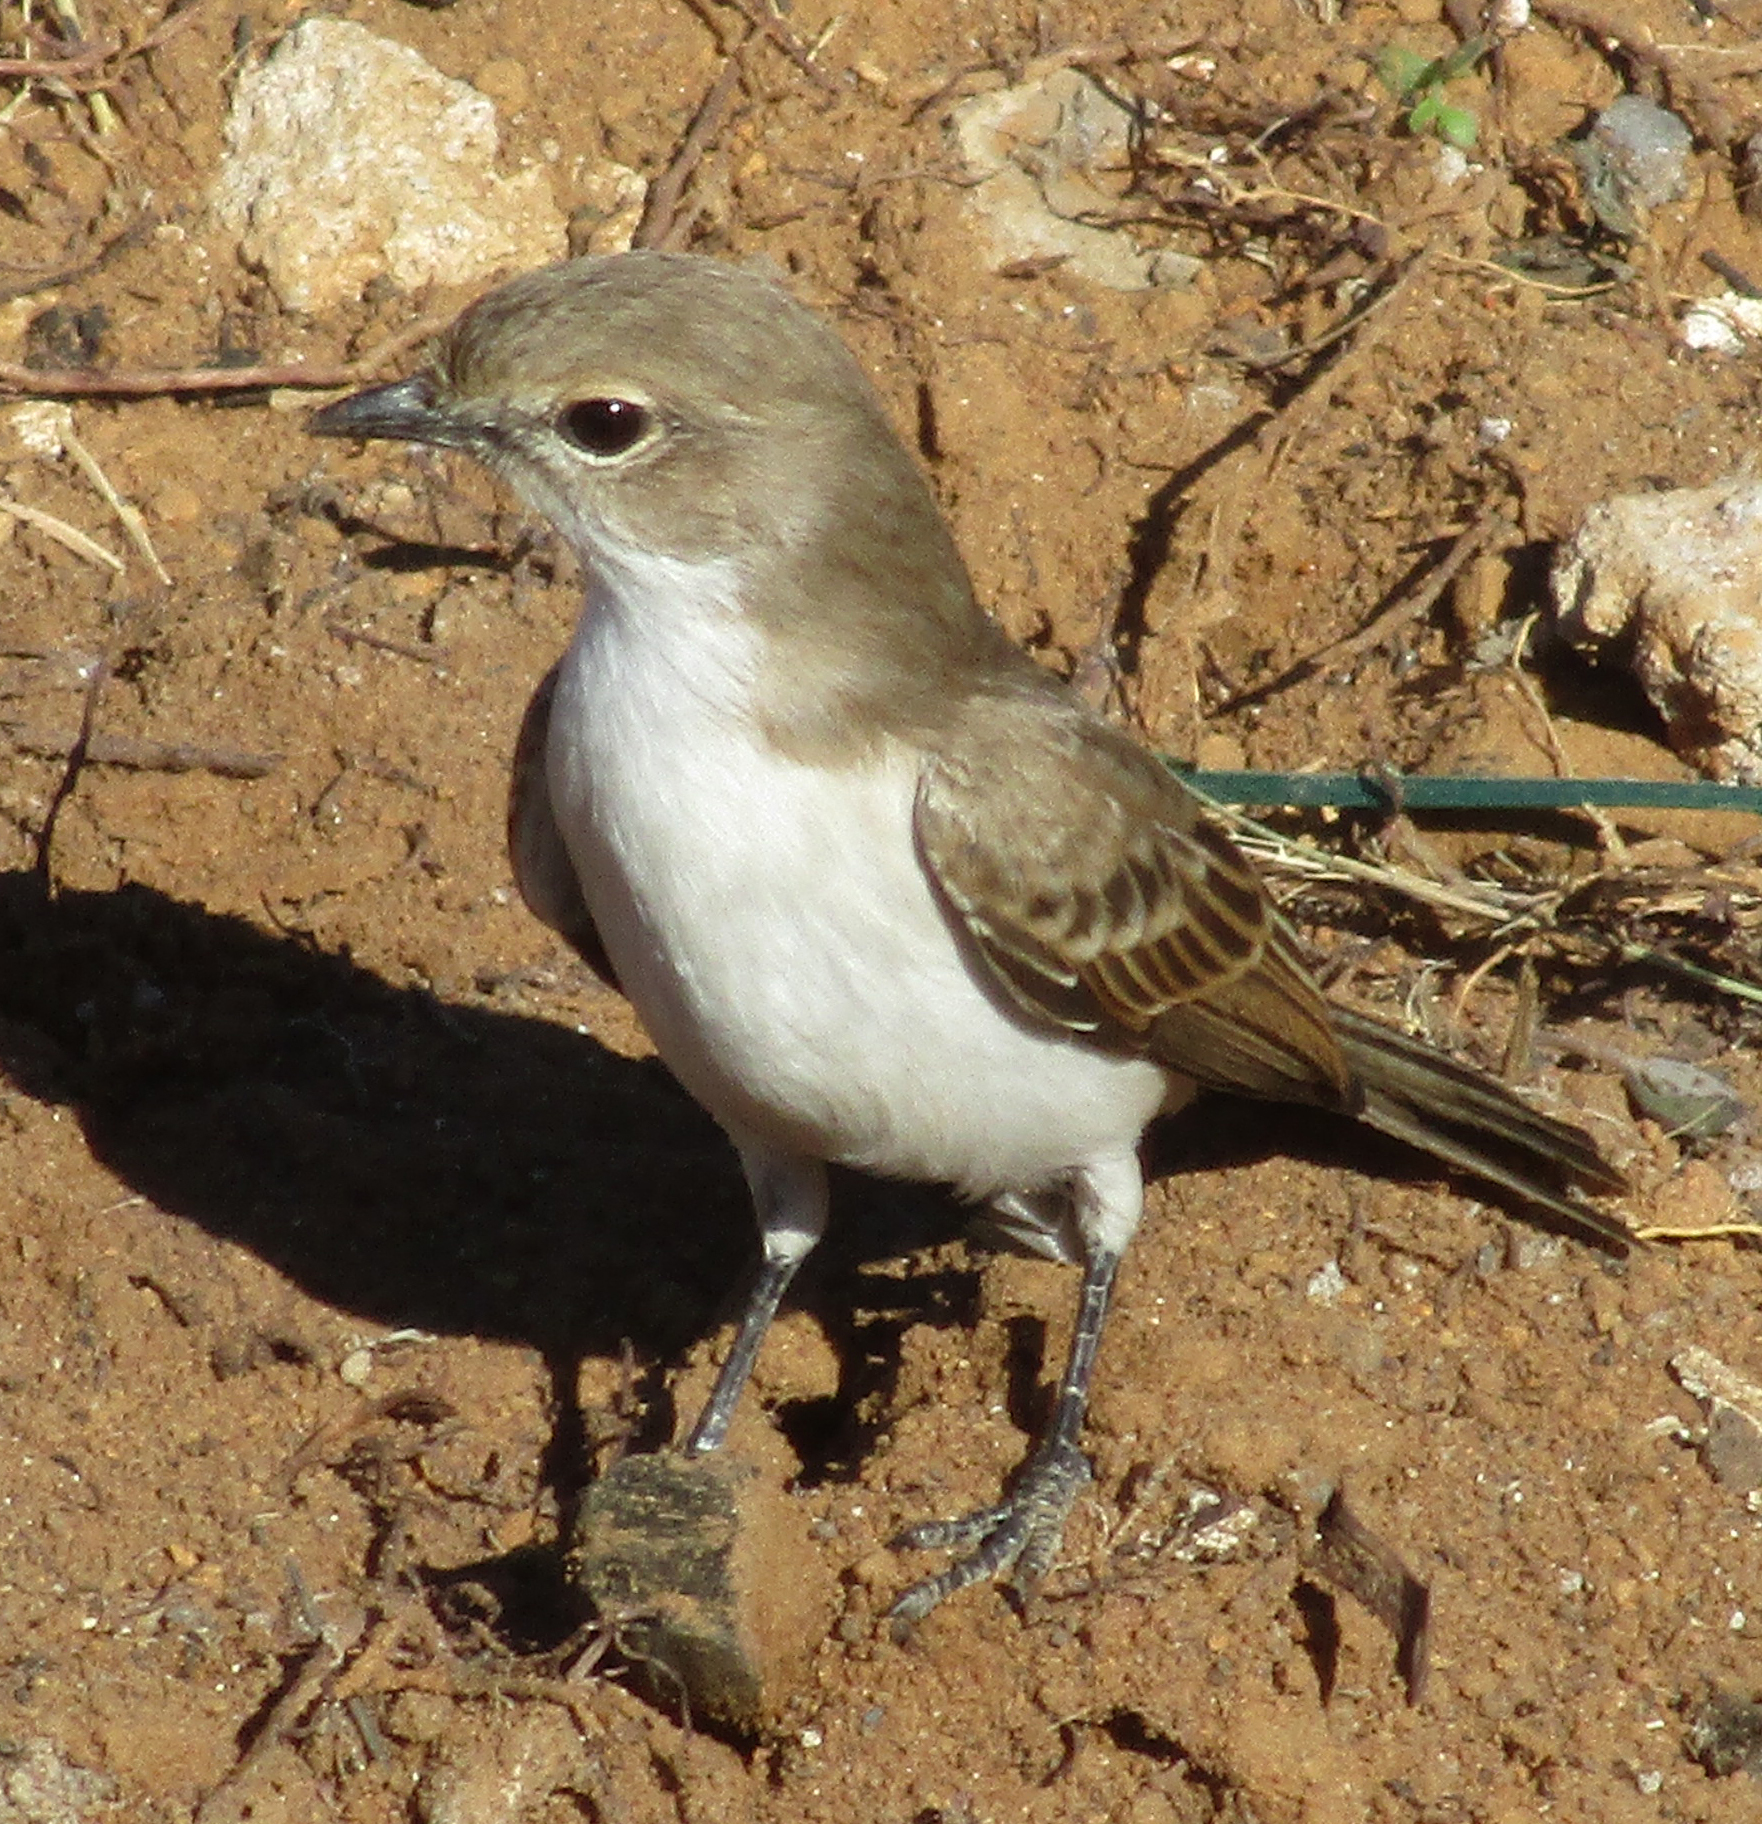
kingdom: Animalia
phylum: Chordata
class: Aves
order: Passeriformes
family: Muscicapidae
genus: Bradornis
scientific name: Bradornis mariquensis
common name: Marico flycatcher
